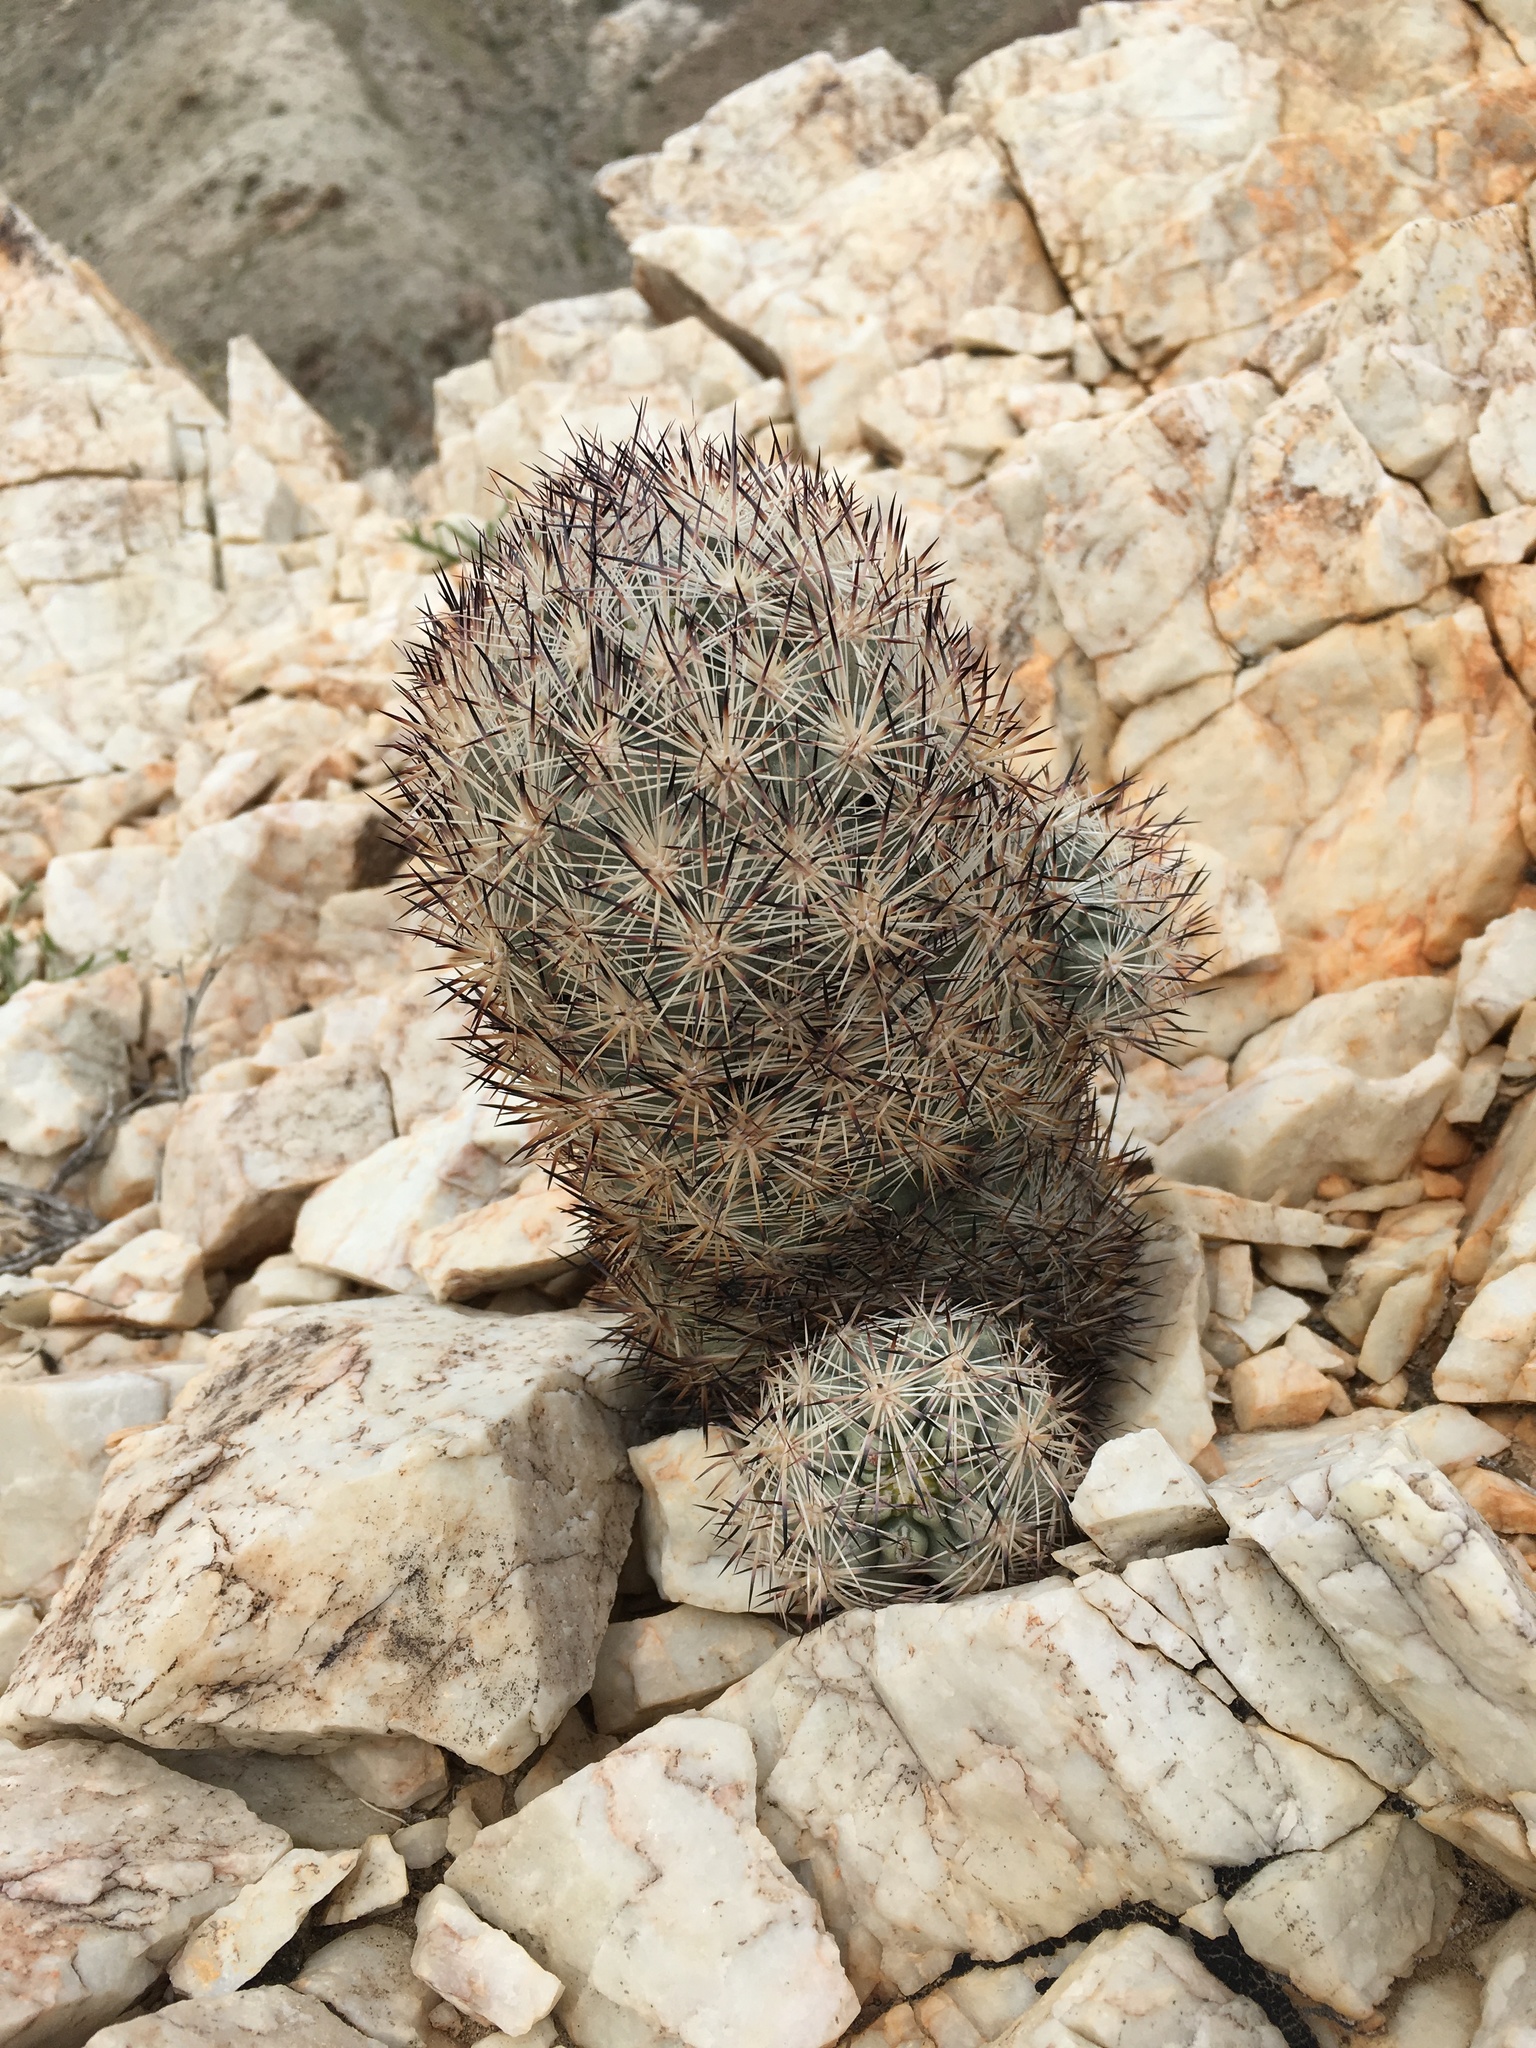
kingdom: Plantae
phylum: Tracheophyta
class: Magnoliopsida
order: Caryophyllales
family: Cactaceae
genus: Pelecyphora
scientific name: Pelecyphora alversonii
